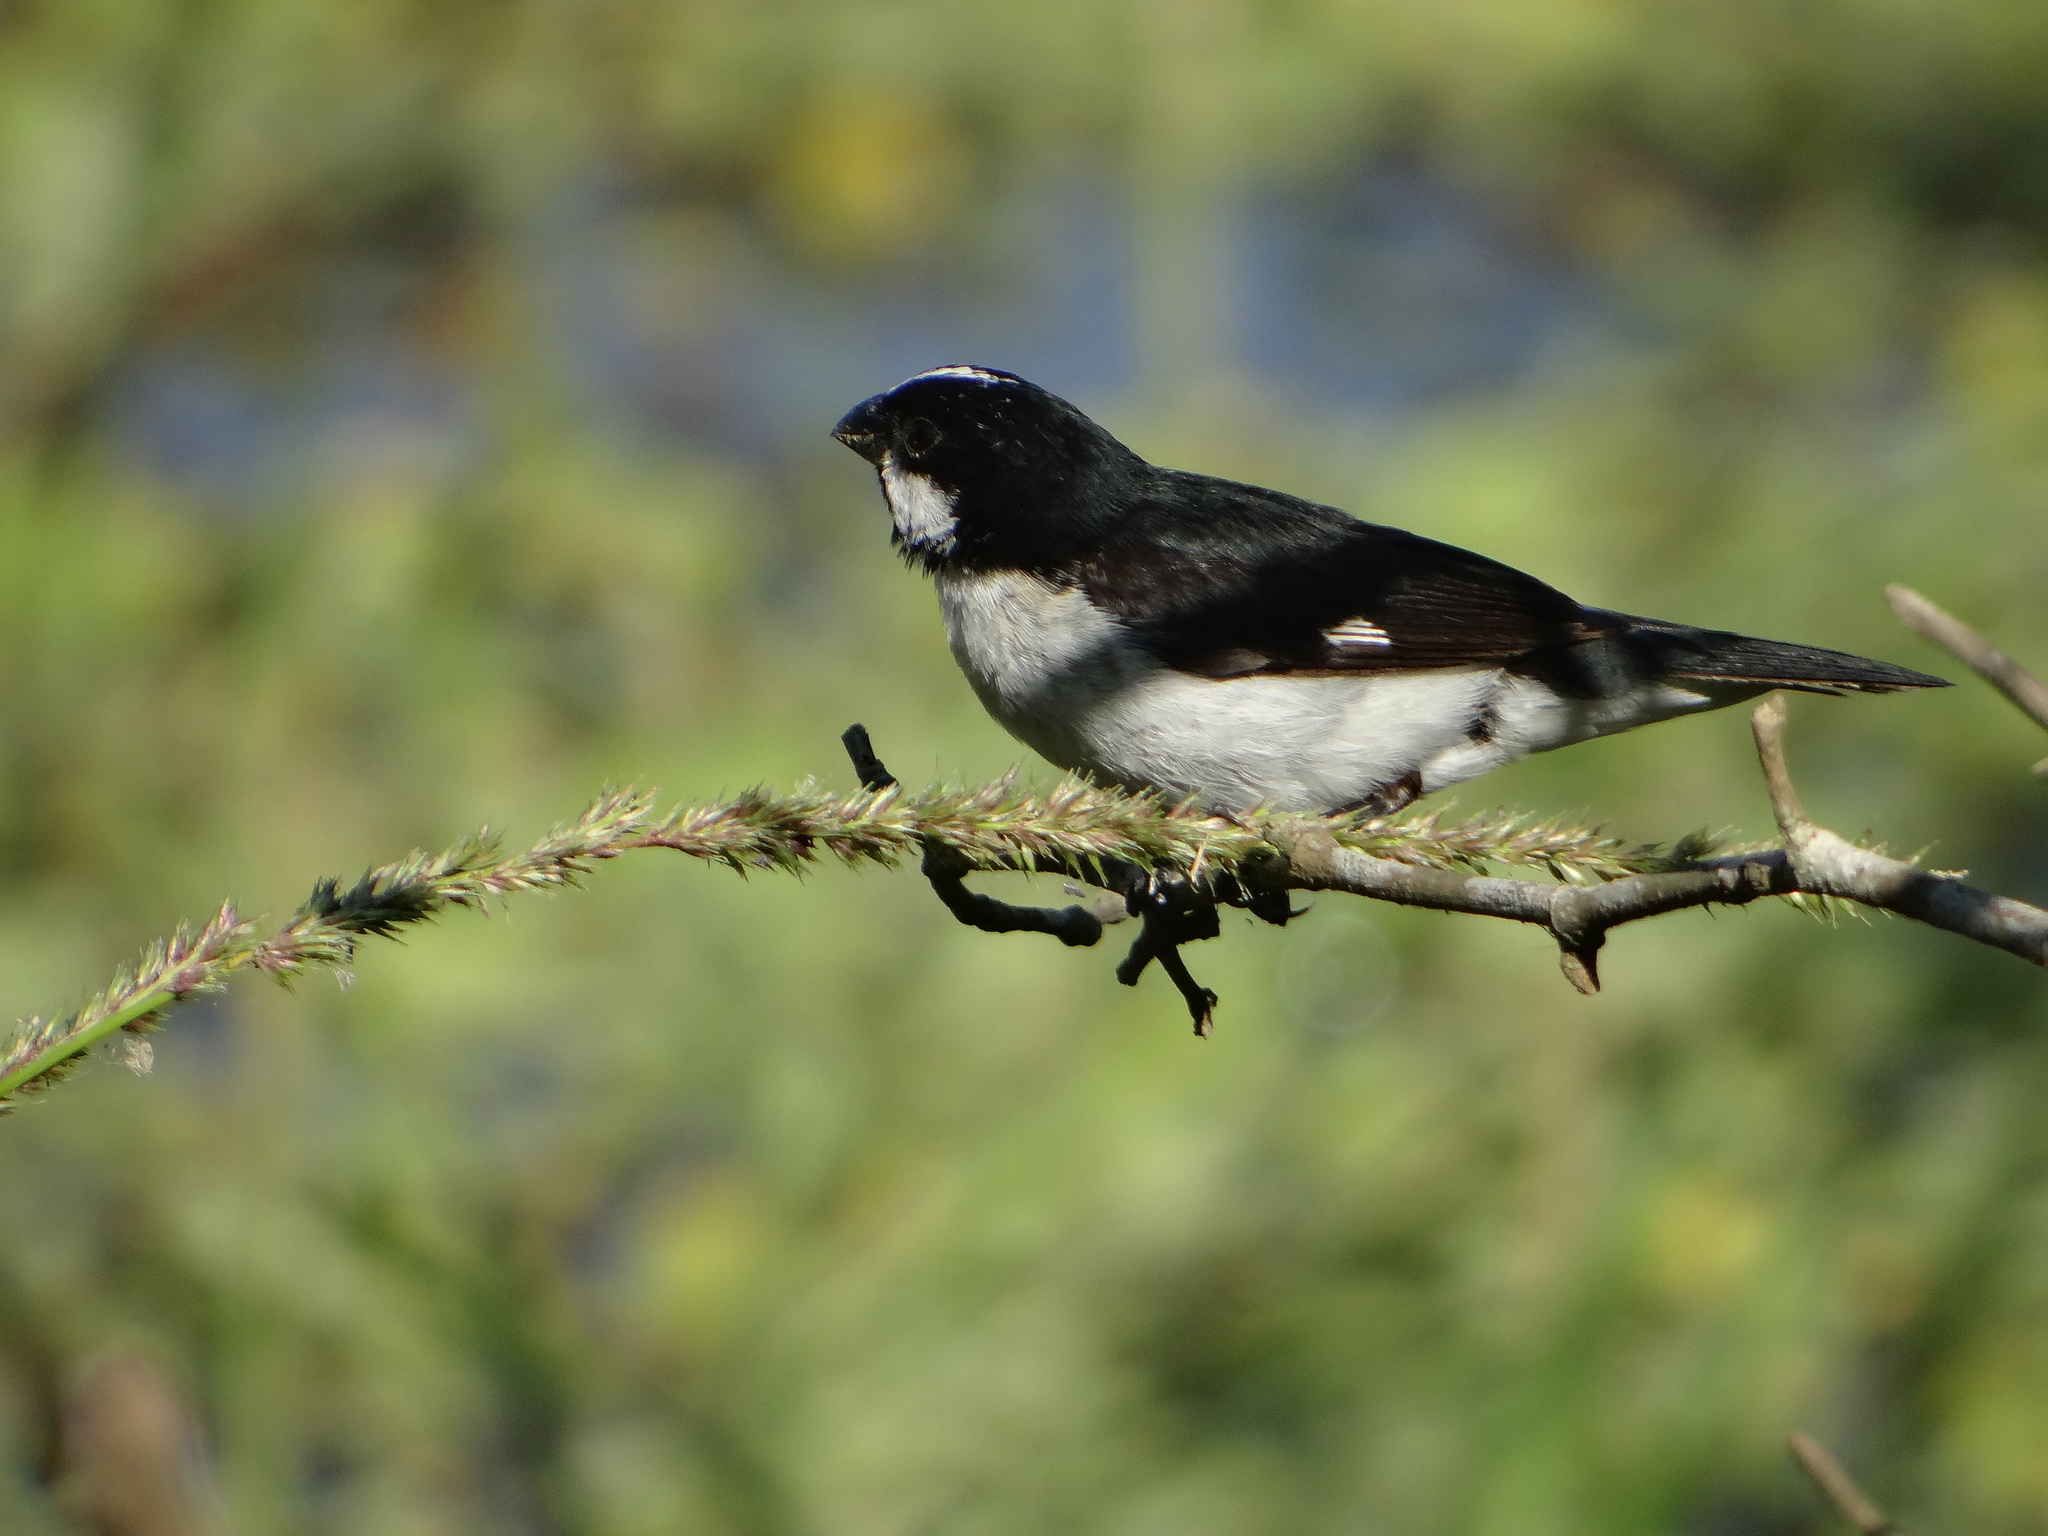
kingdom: Animalia
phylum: Chordata
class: Aves
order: Passeriformes
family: Thraupidae
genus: Sporophila
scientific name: Sporophila lineola
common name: Lined seedeater
